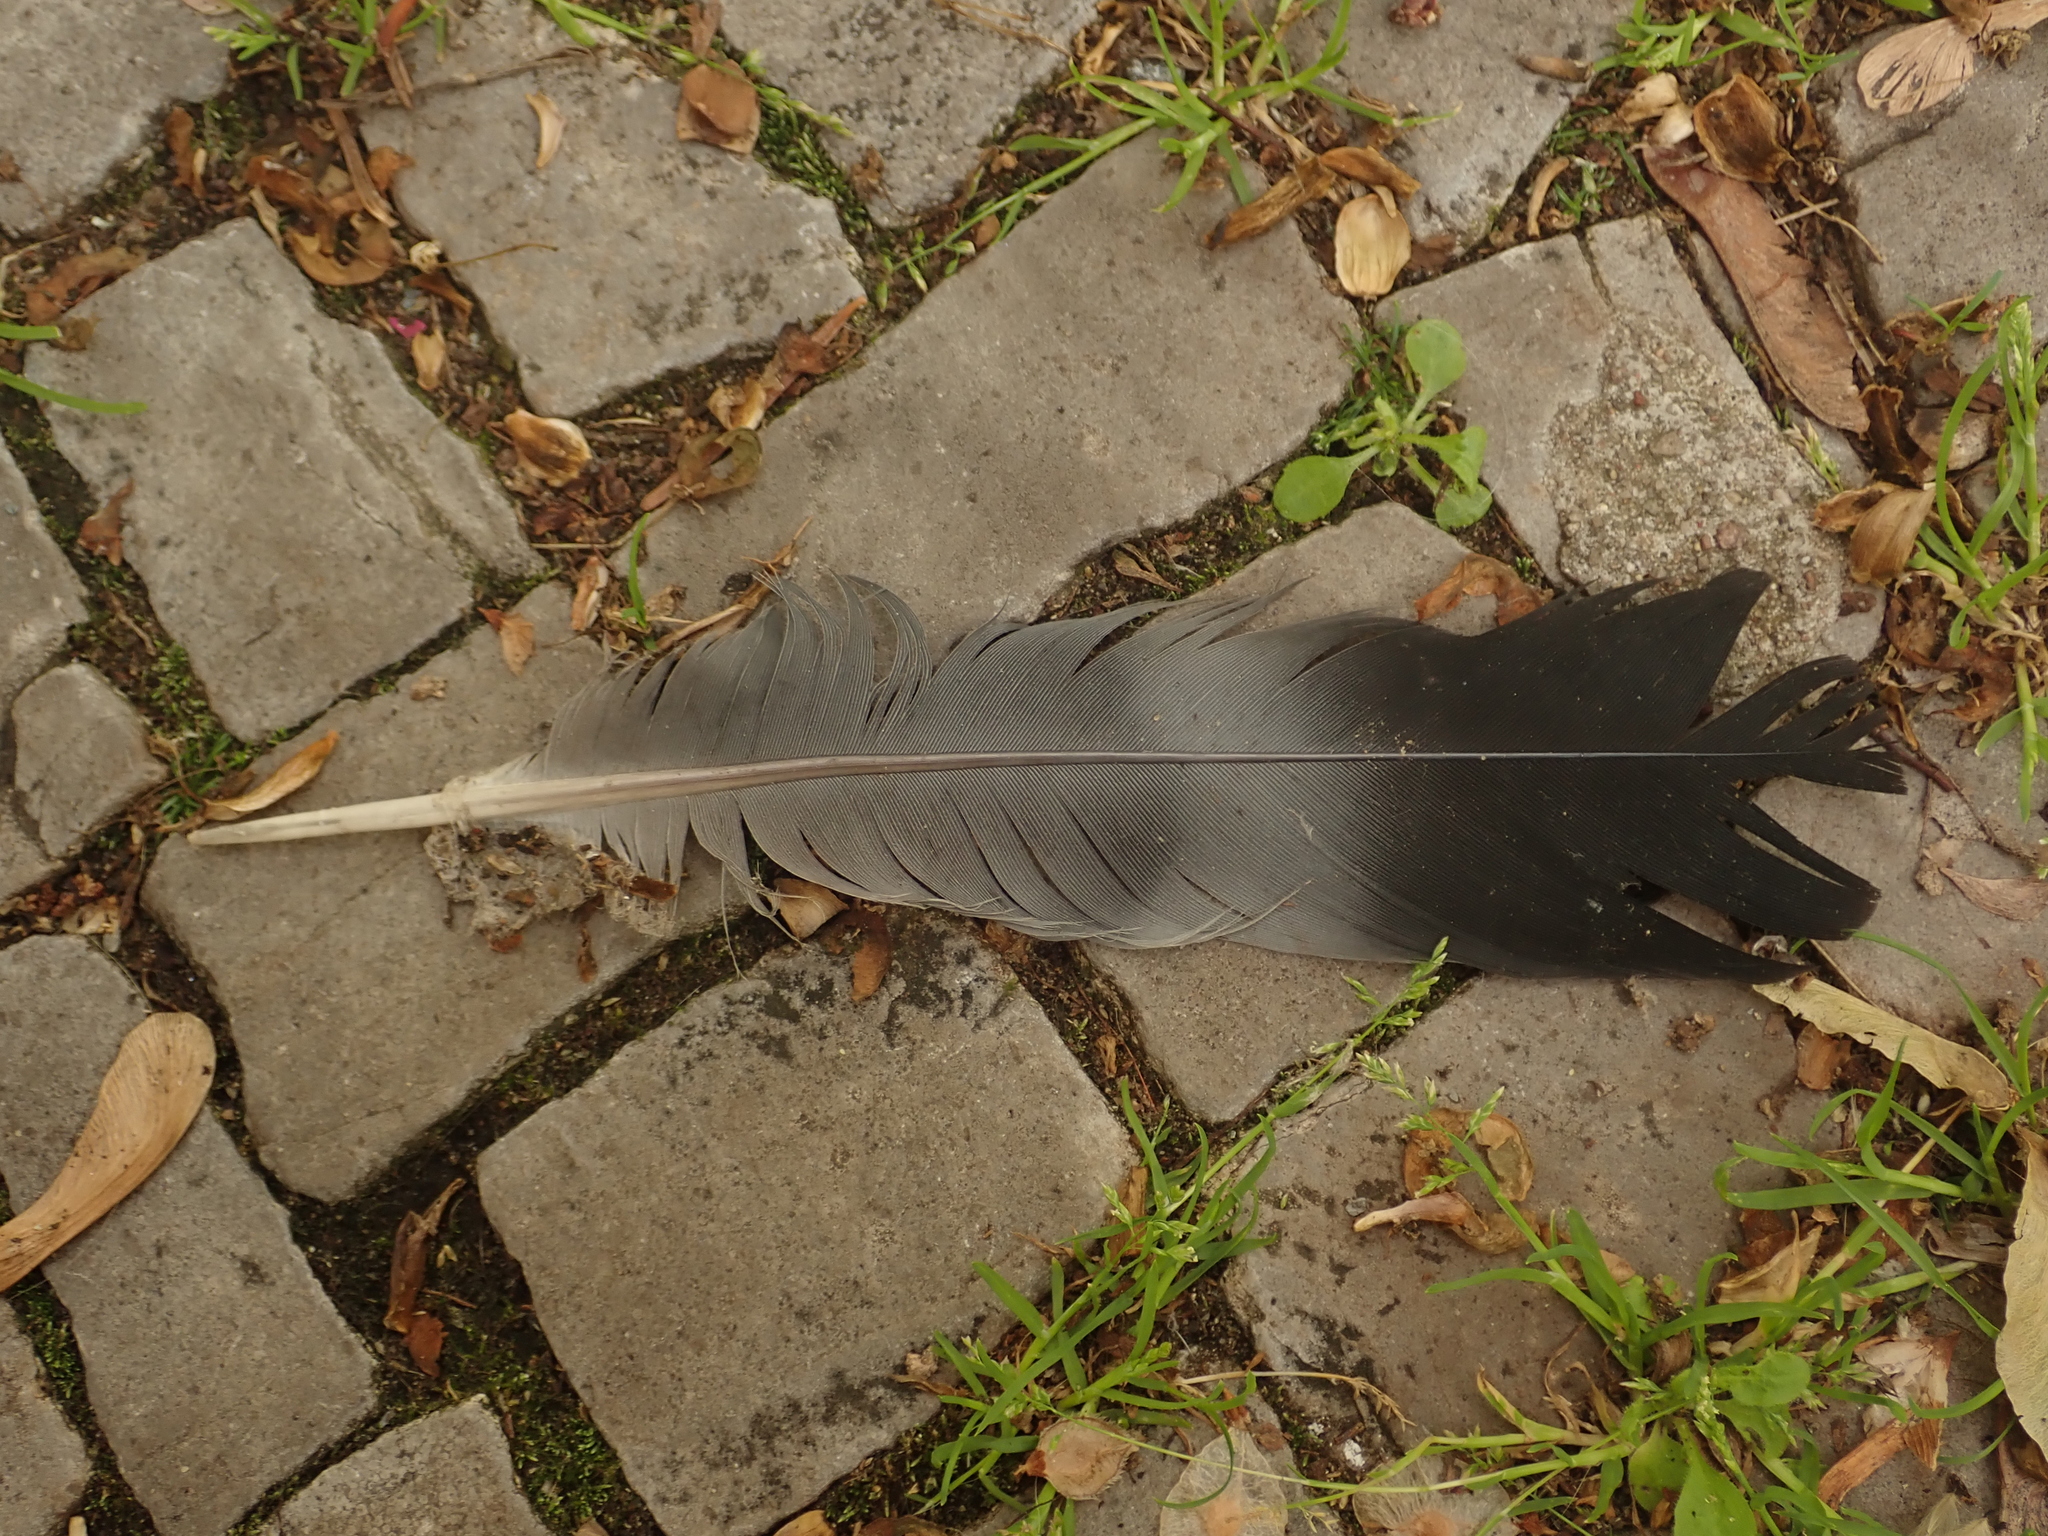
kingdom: Animalia
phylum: Chordata
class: Aves
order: Columbiformes
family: Columbidae
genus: Columba
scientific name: Columba palumbus
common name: Common wood pigeon
